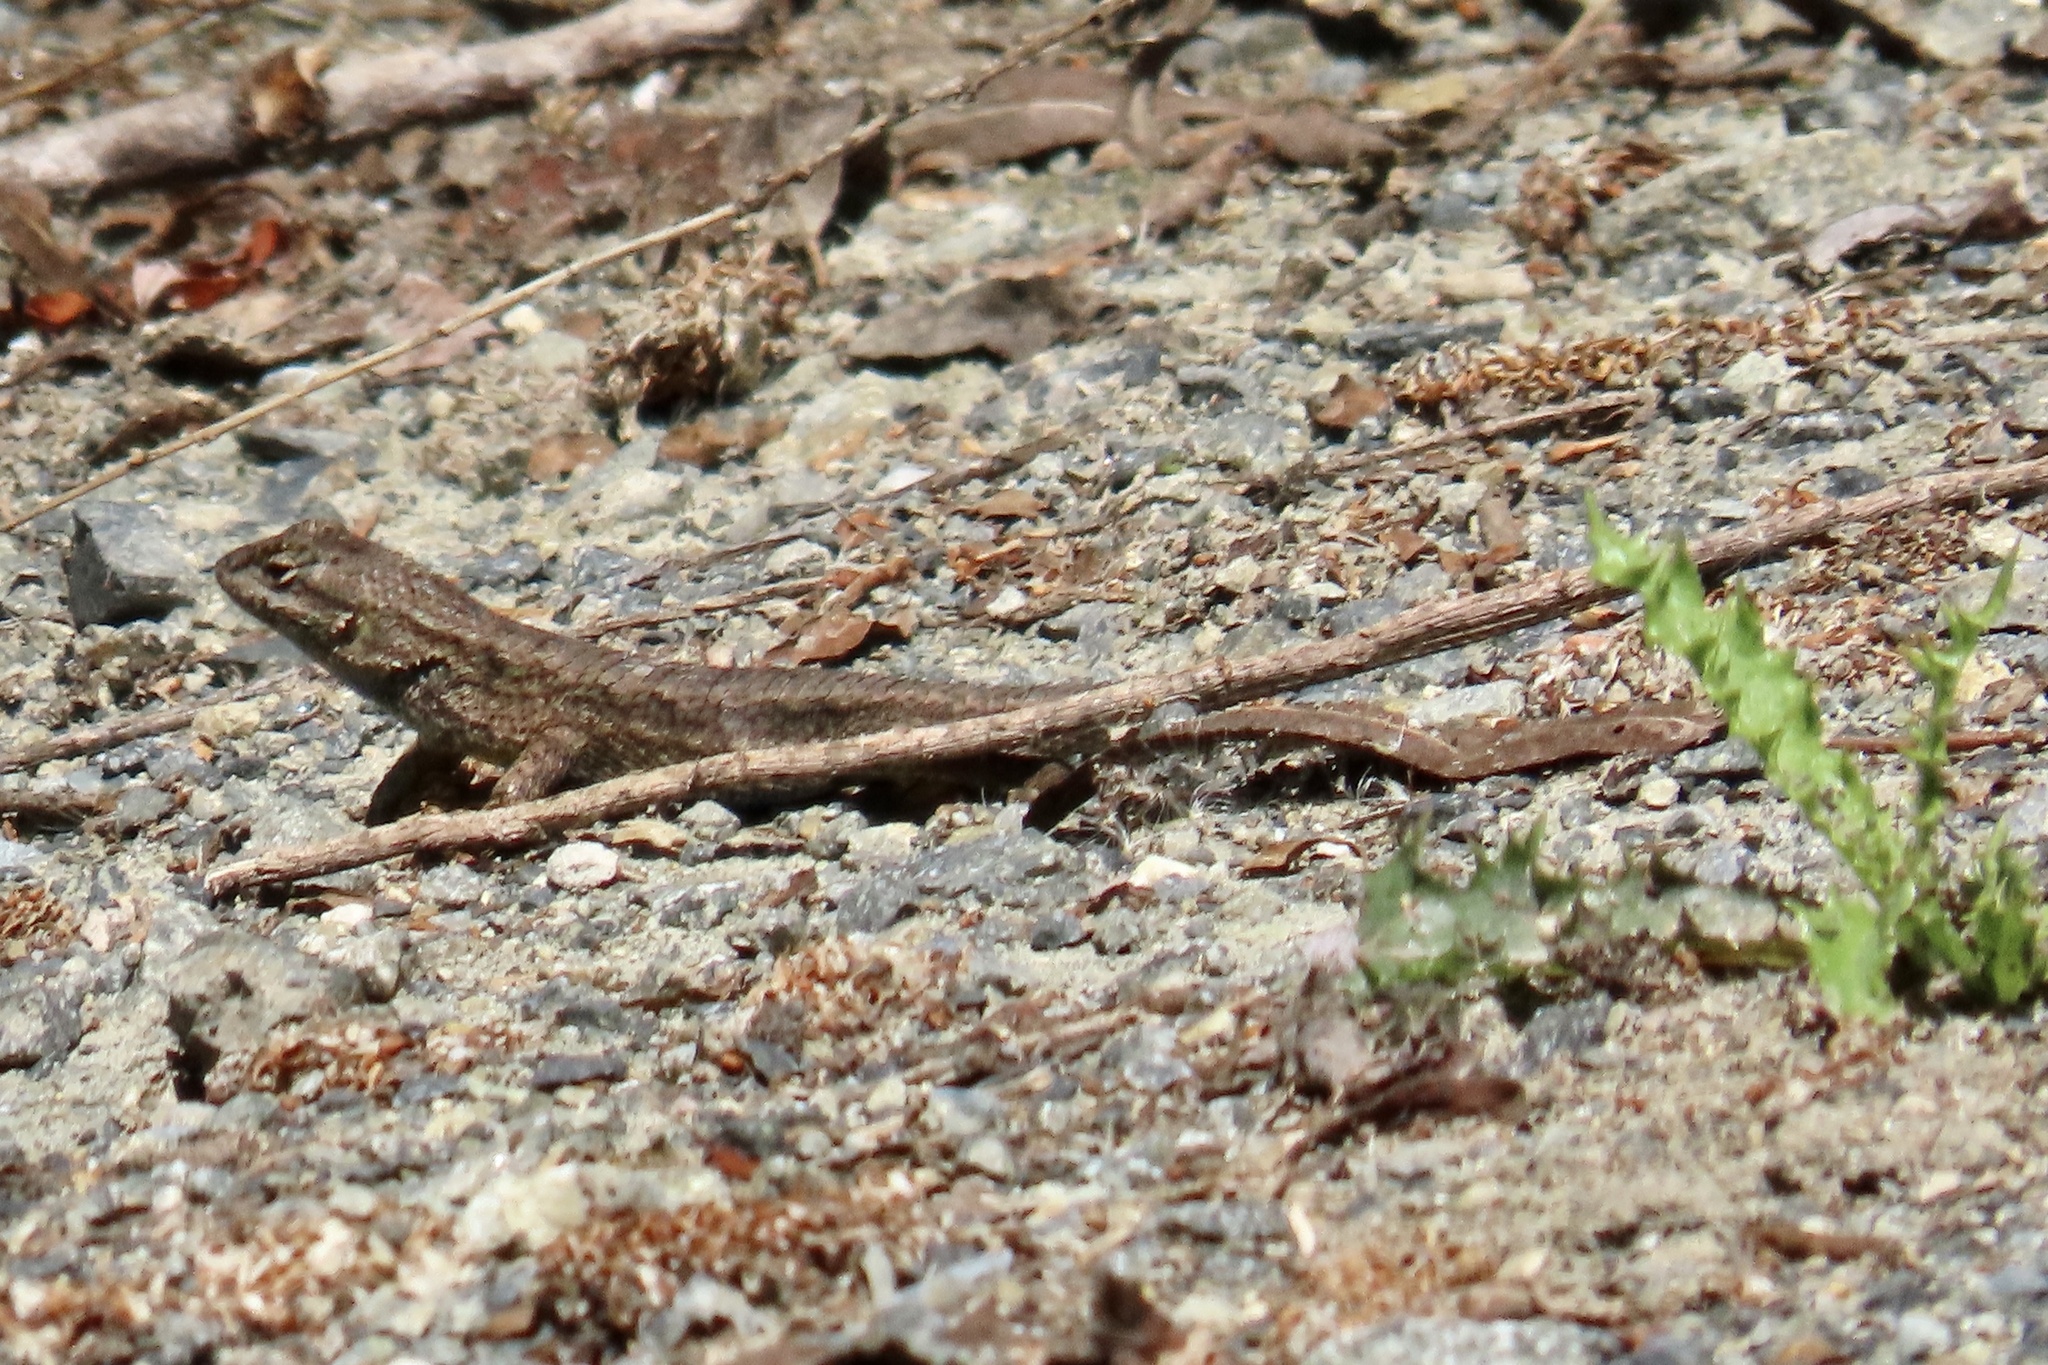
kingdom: Animalia
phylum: Chordata
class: Squamata
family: Phrynosomatidae
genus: Sceloporus
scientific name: Sceloporus occidentalis
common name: Western fence lizard
